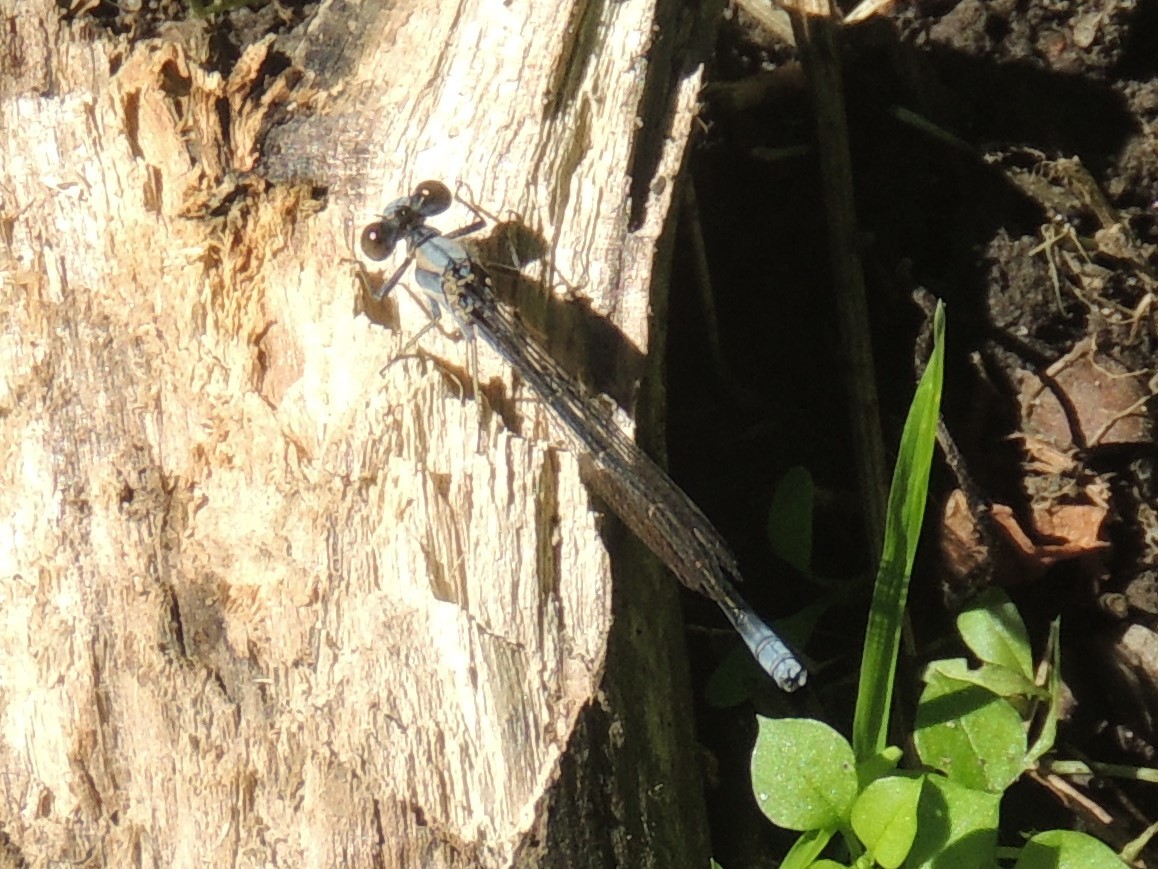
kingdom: Animalia
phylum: Arthropoda
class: Insecta
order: Odonata
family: Coenagrionidae
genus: Argia
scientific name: Argia moesta
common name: Powdered dancer
